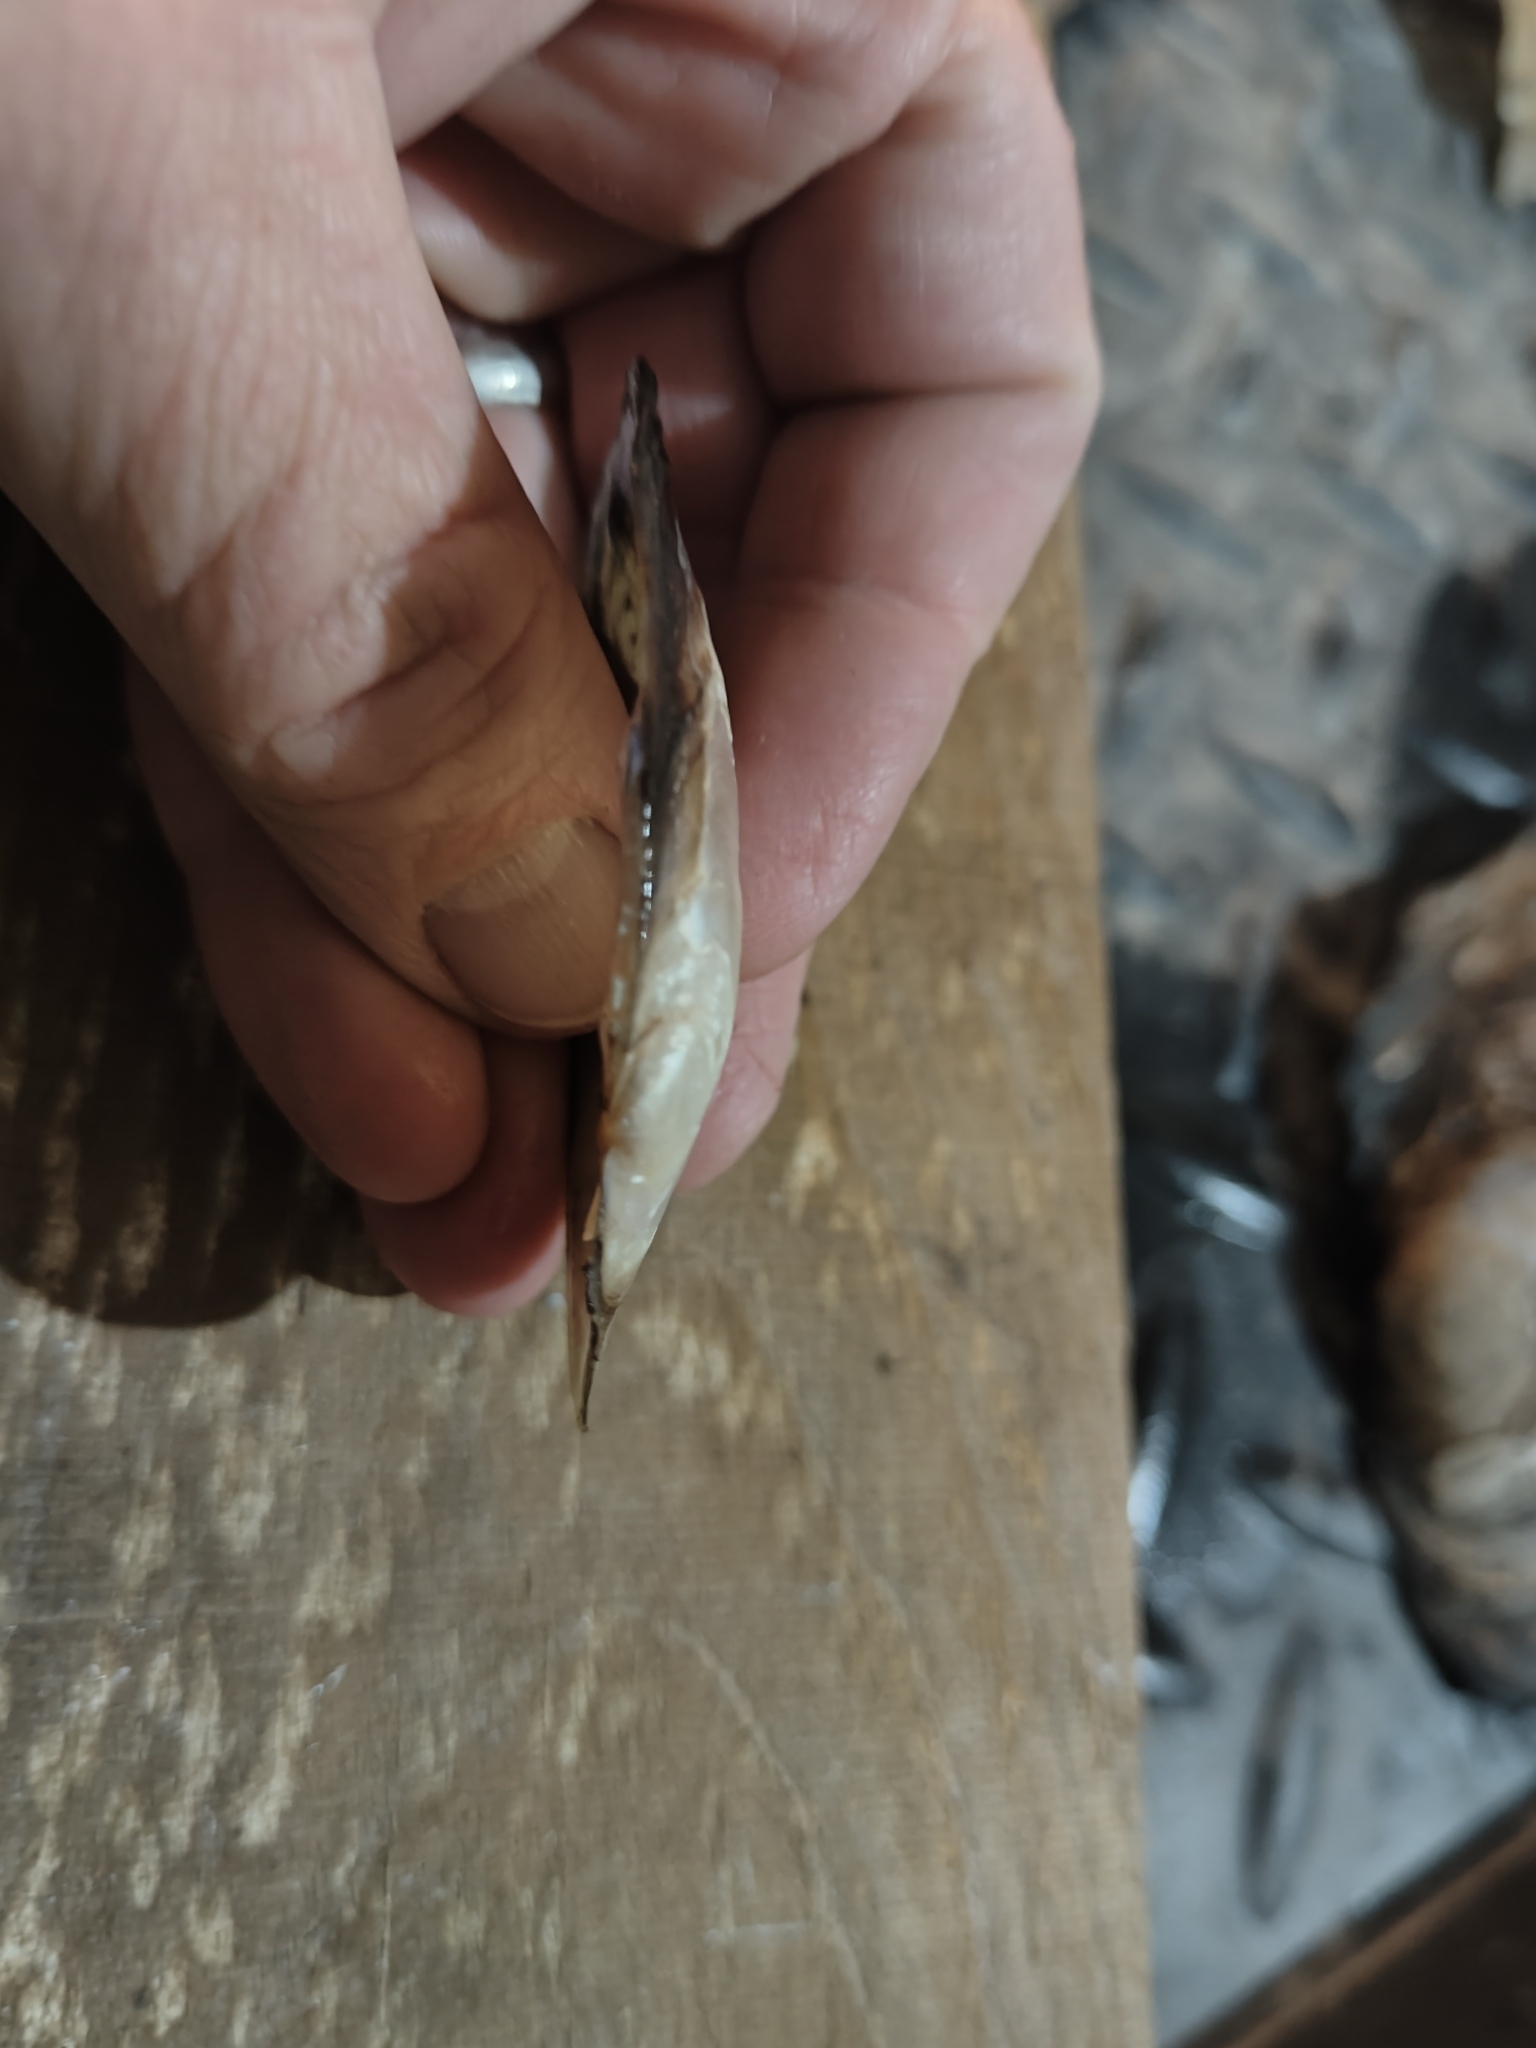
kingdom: Animalia
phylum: Mollusca
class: Bivalvia
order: Unionida
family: Unionidae
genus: Potamilus
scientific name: Potamilus ohiensis
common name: Pink papershell
